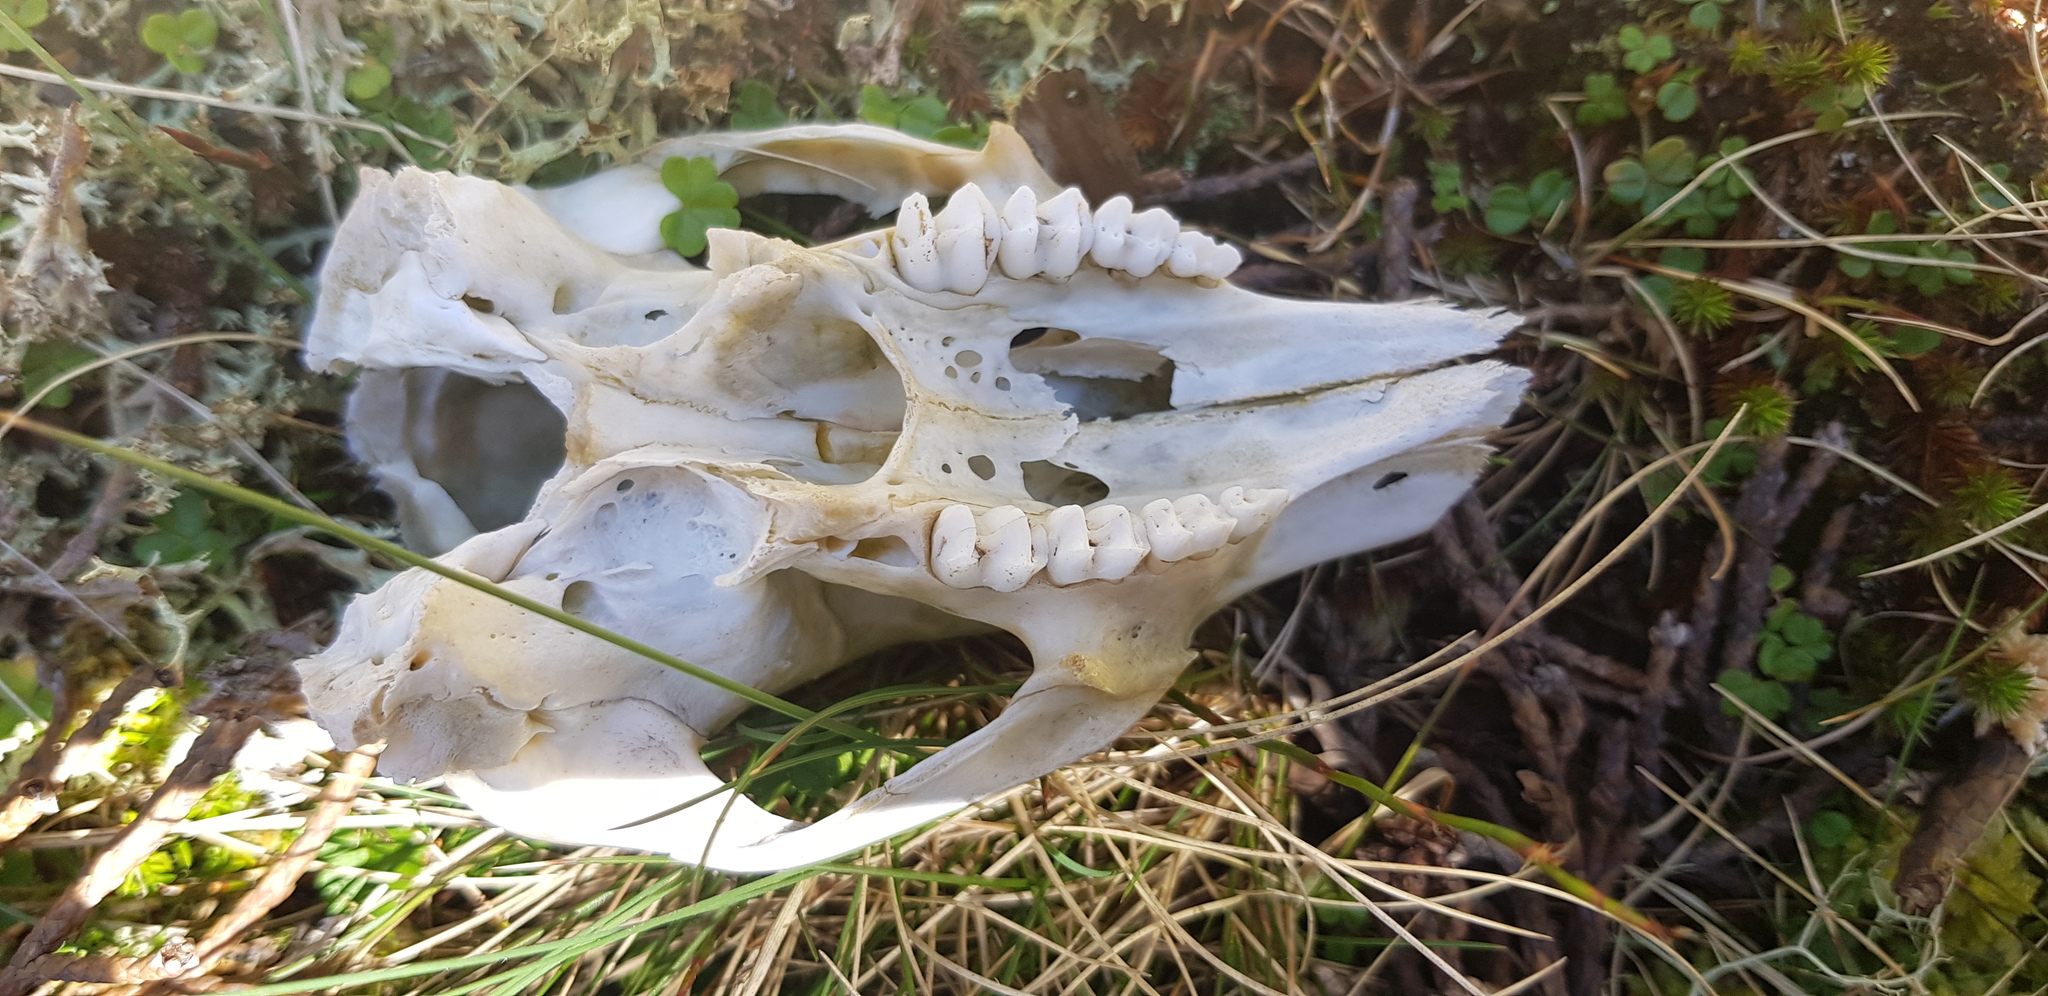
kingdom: Animalia
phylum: Chordata
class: Mammalia
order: Diprotodontia
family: Macropodidae
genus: Notamacropus
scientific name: Notamacropus rufogriseus
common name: Red-necked wallaby
